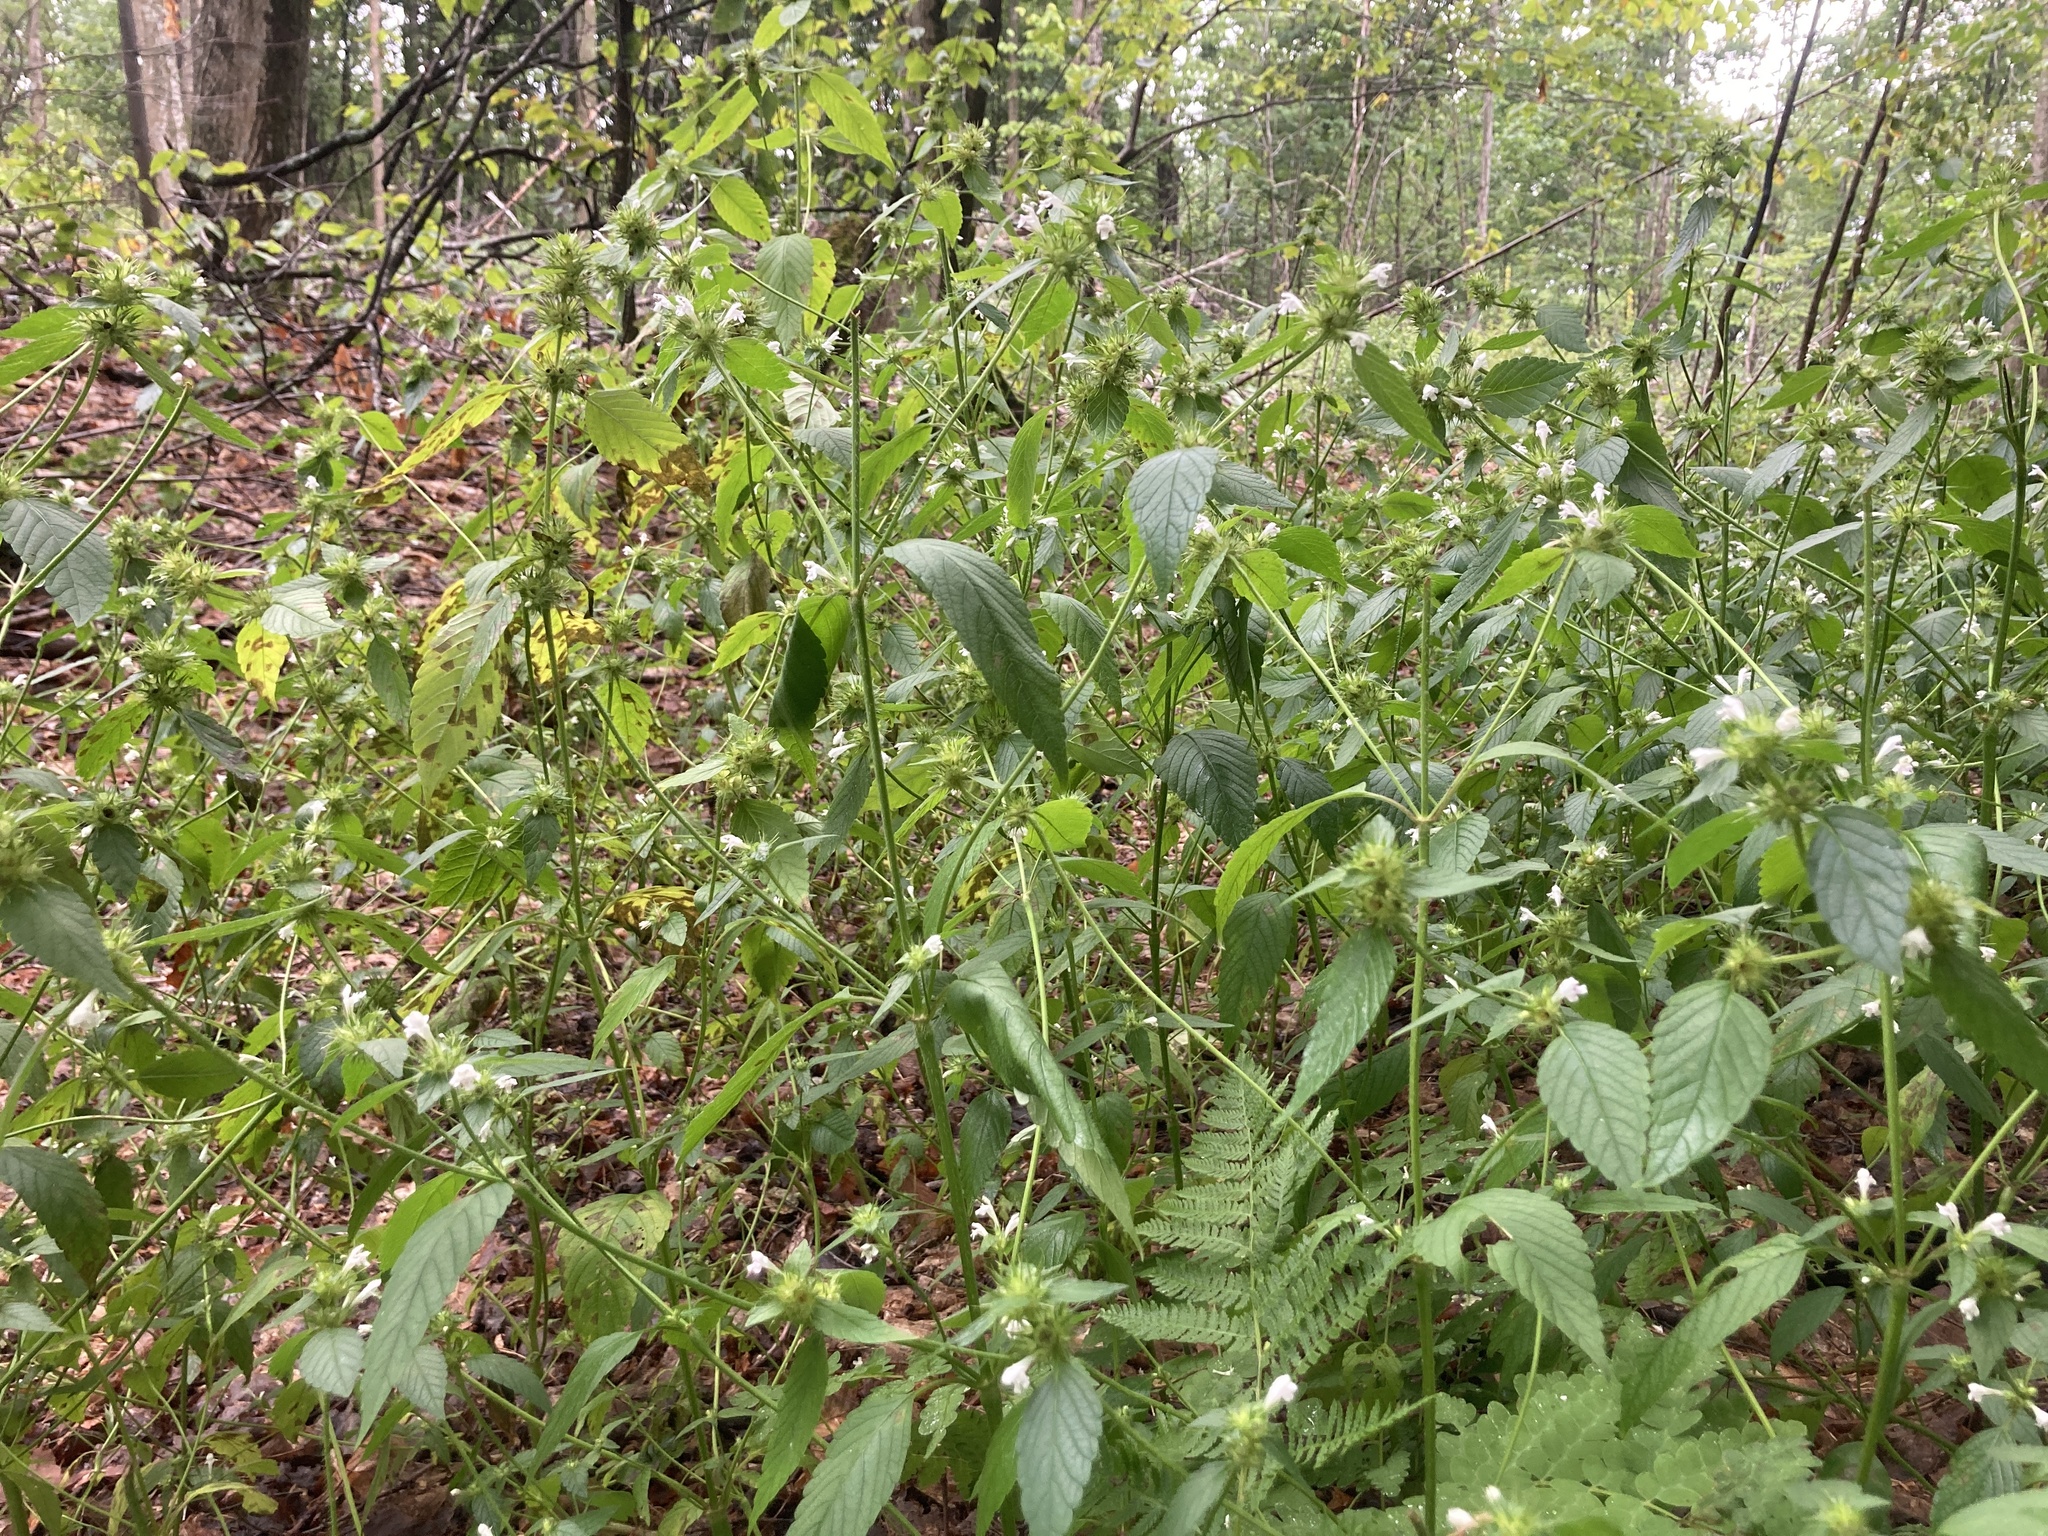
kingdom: Plantae
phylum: Tracheophyta
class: Magnoliopsida
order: Lamiales
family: Lamiaceae
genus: Galeopsis
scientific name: Galeopsis tetrahit
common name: Common hemp-nettle
